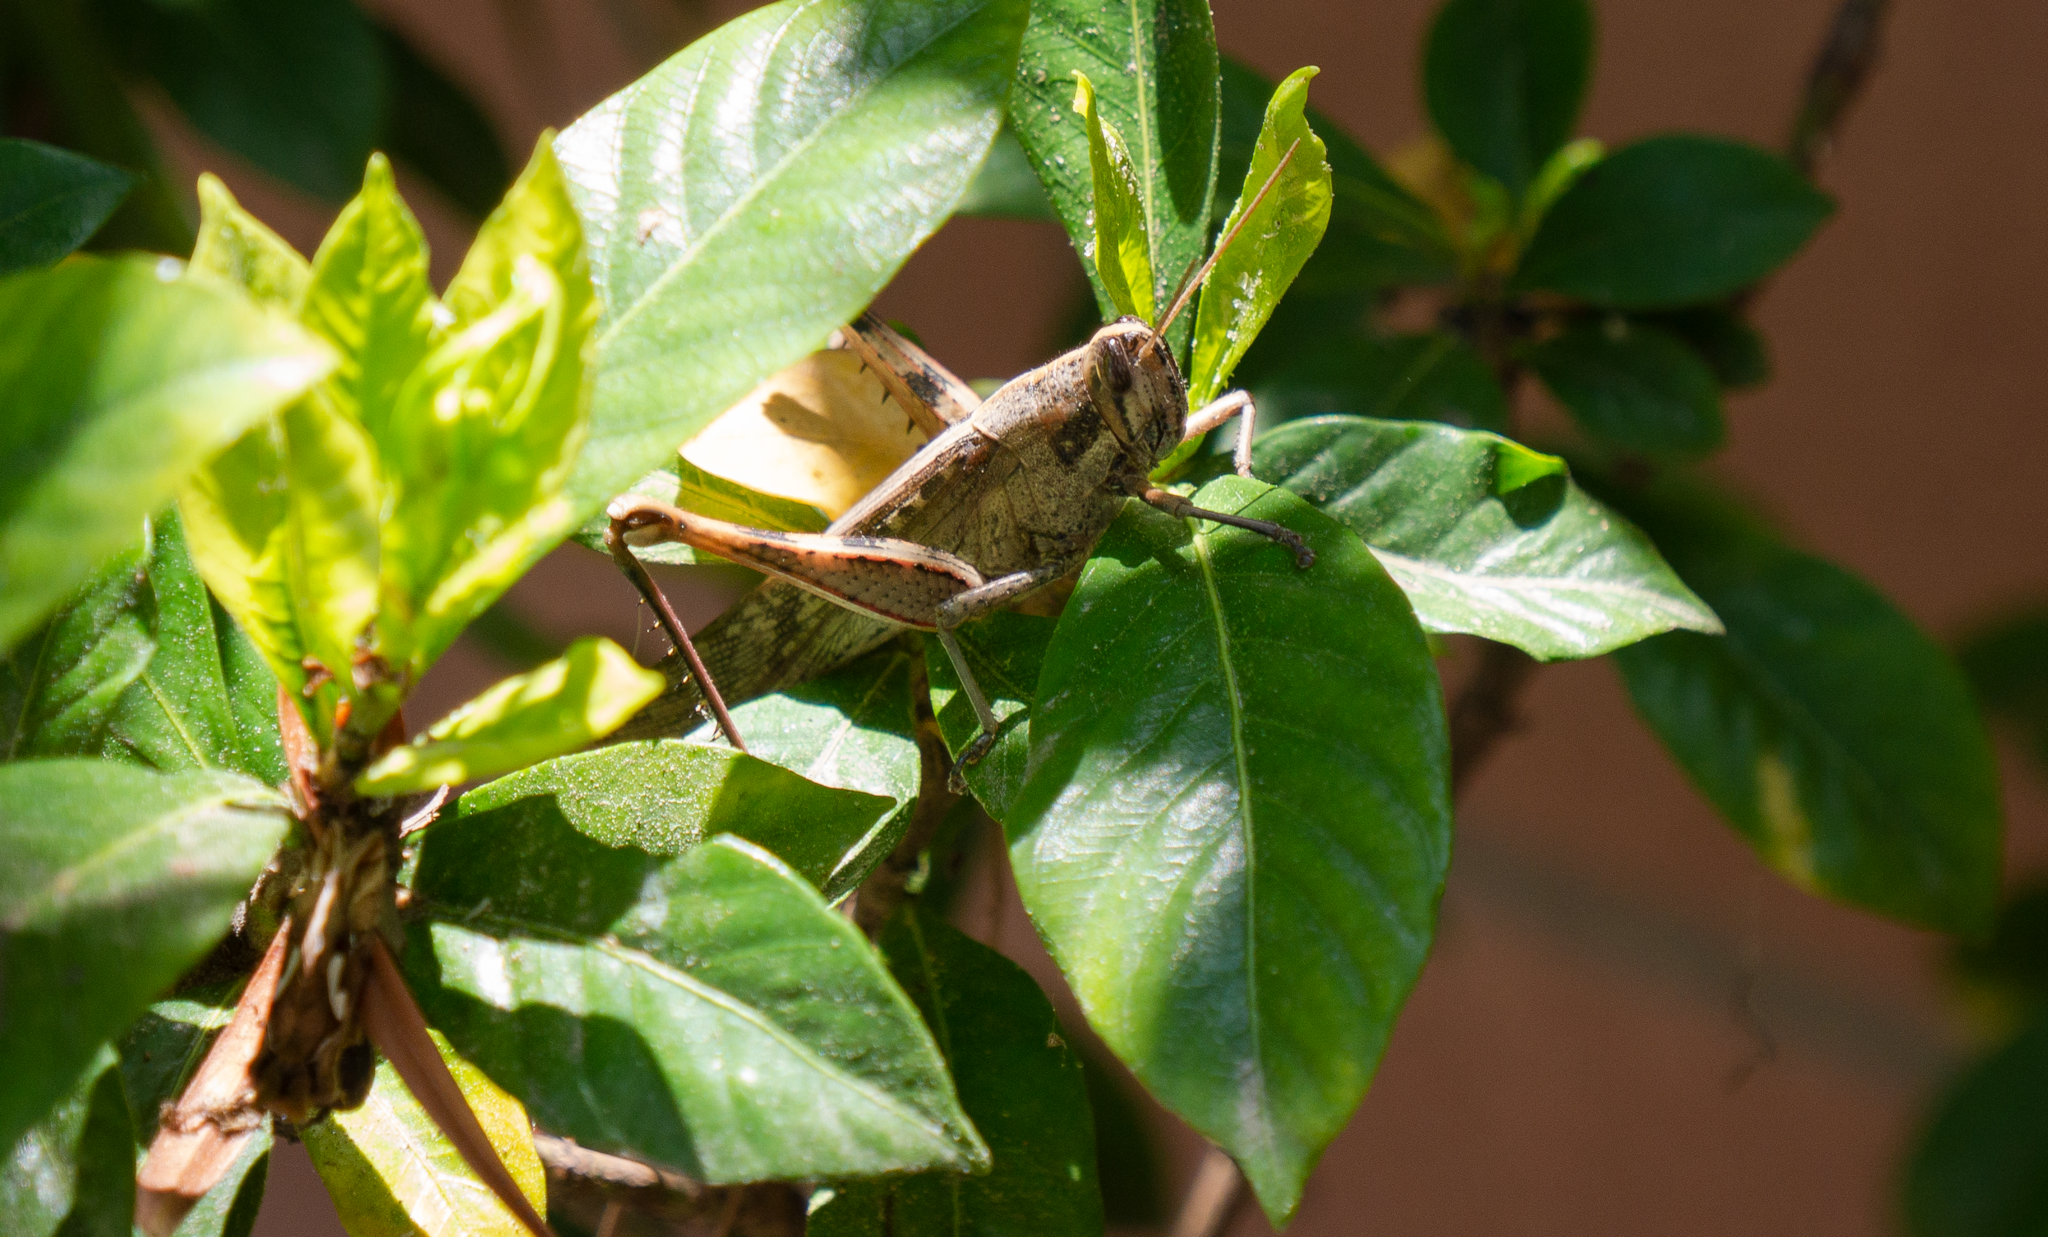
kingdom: Animalia
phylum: Arthropoda
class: Insecta
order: Orthoptera
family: Acrididae
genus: Schistocerca
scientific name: Schistocerca nitens
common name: Vagrant grasshopper
